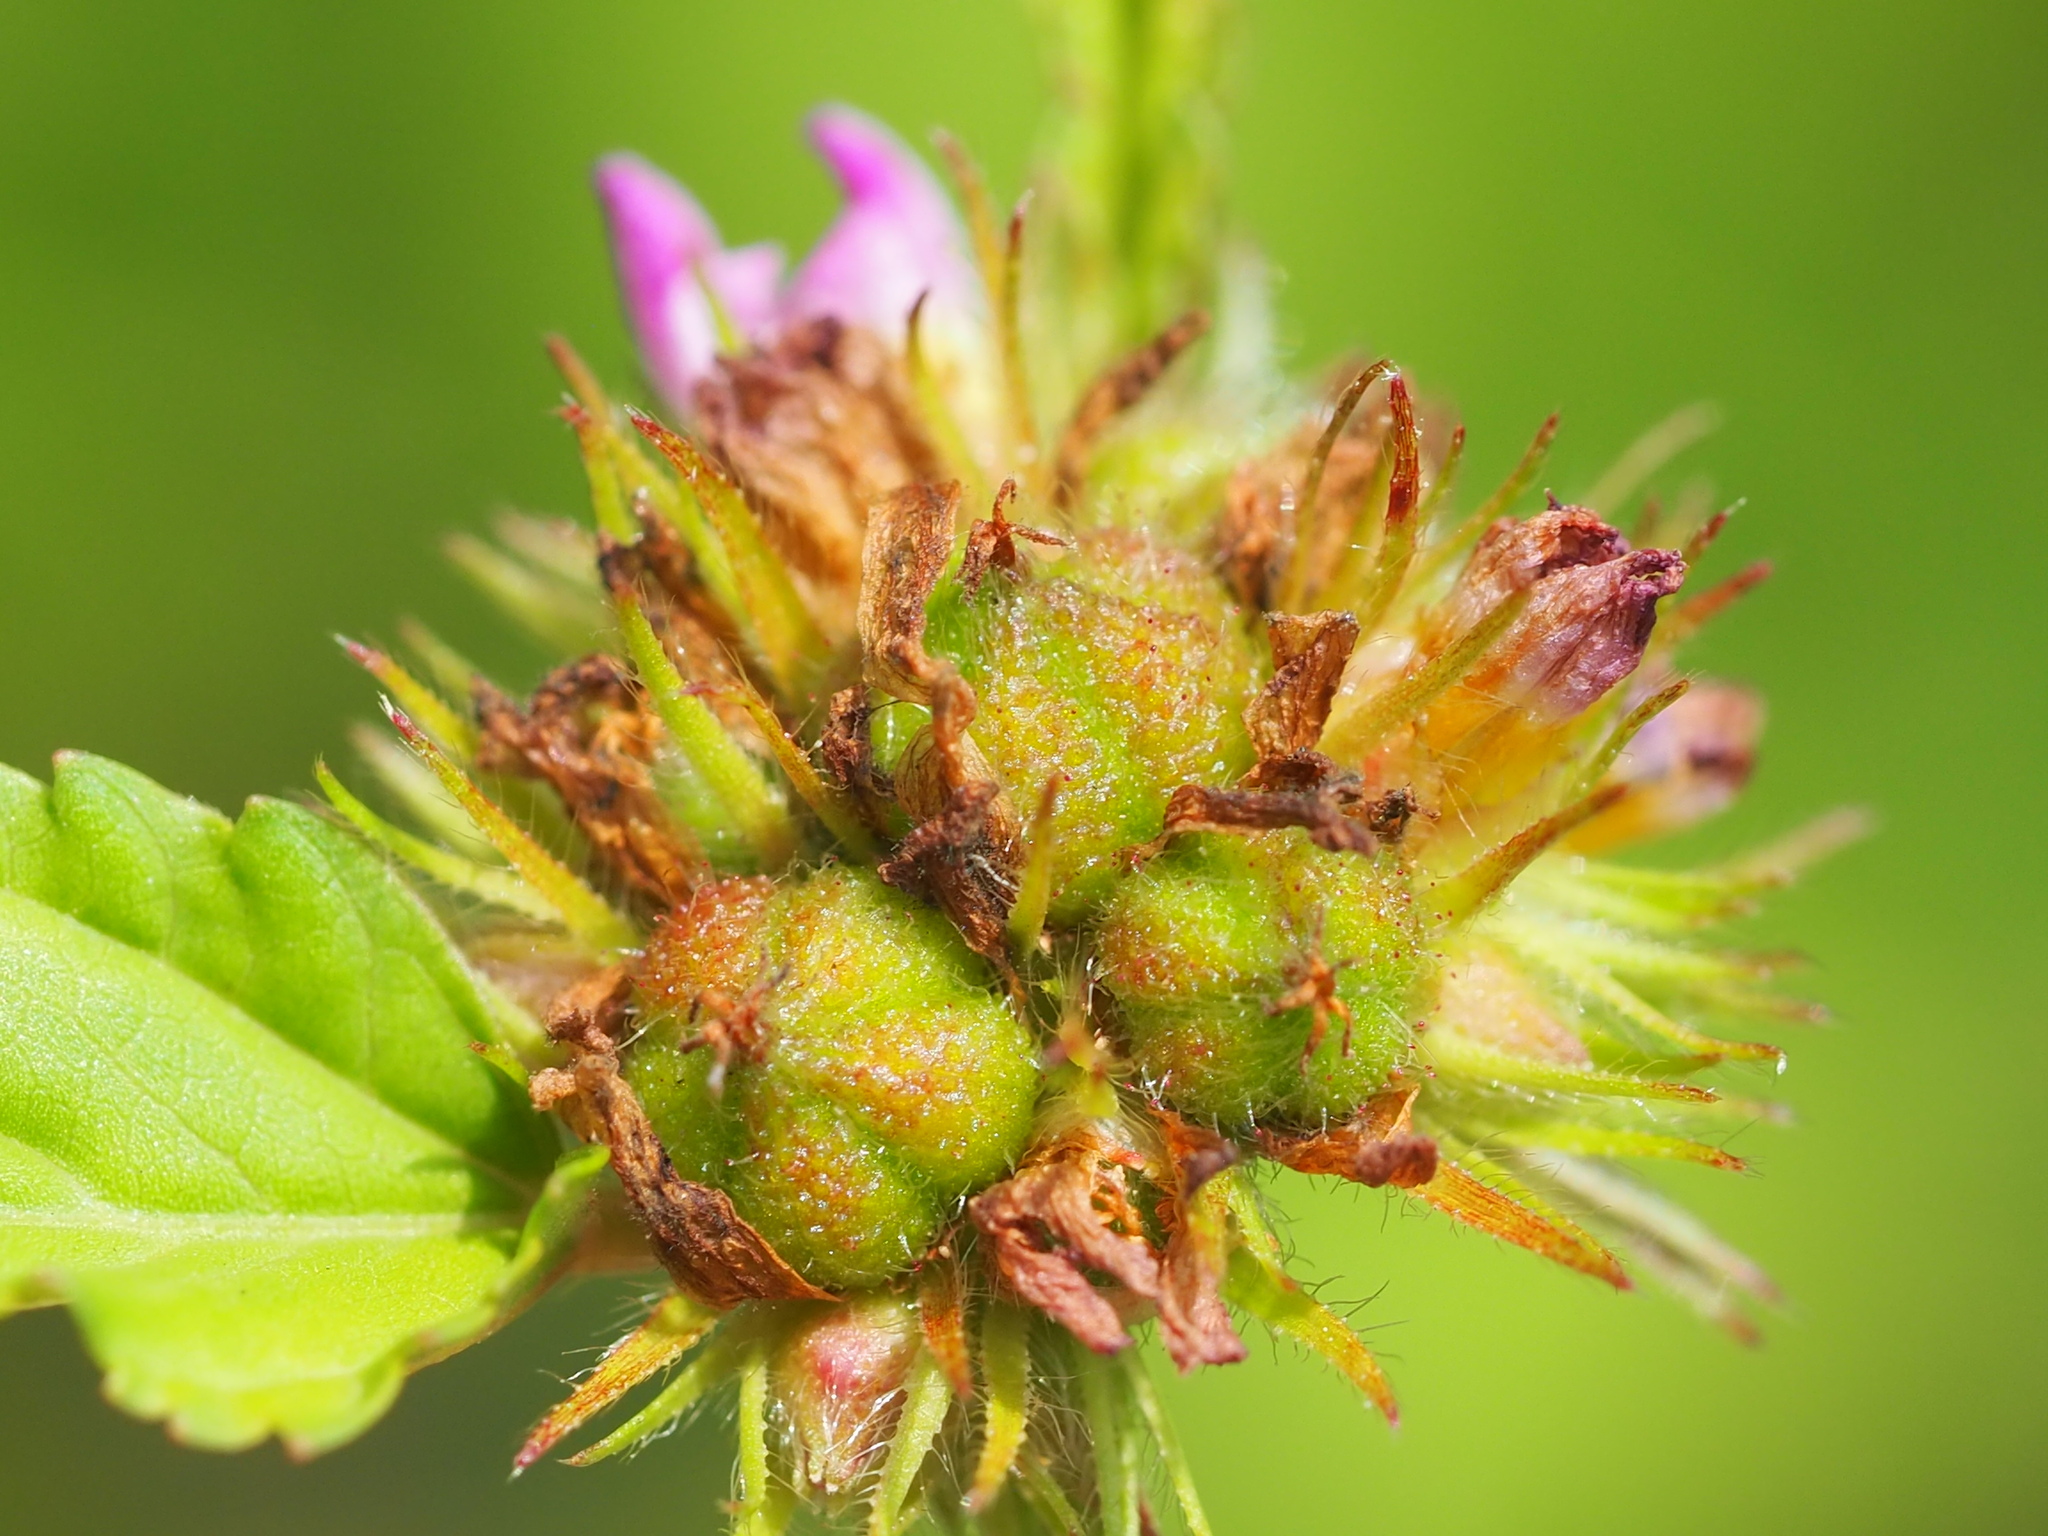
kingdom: Plantae
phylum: Tracheophyta
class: Magnoliopsida
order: Malvales
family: Malvaceae
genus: Melochia
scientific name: Melochia corchorifolia
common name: Chocolateweed
